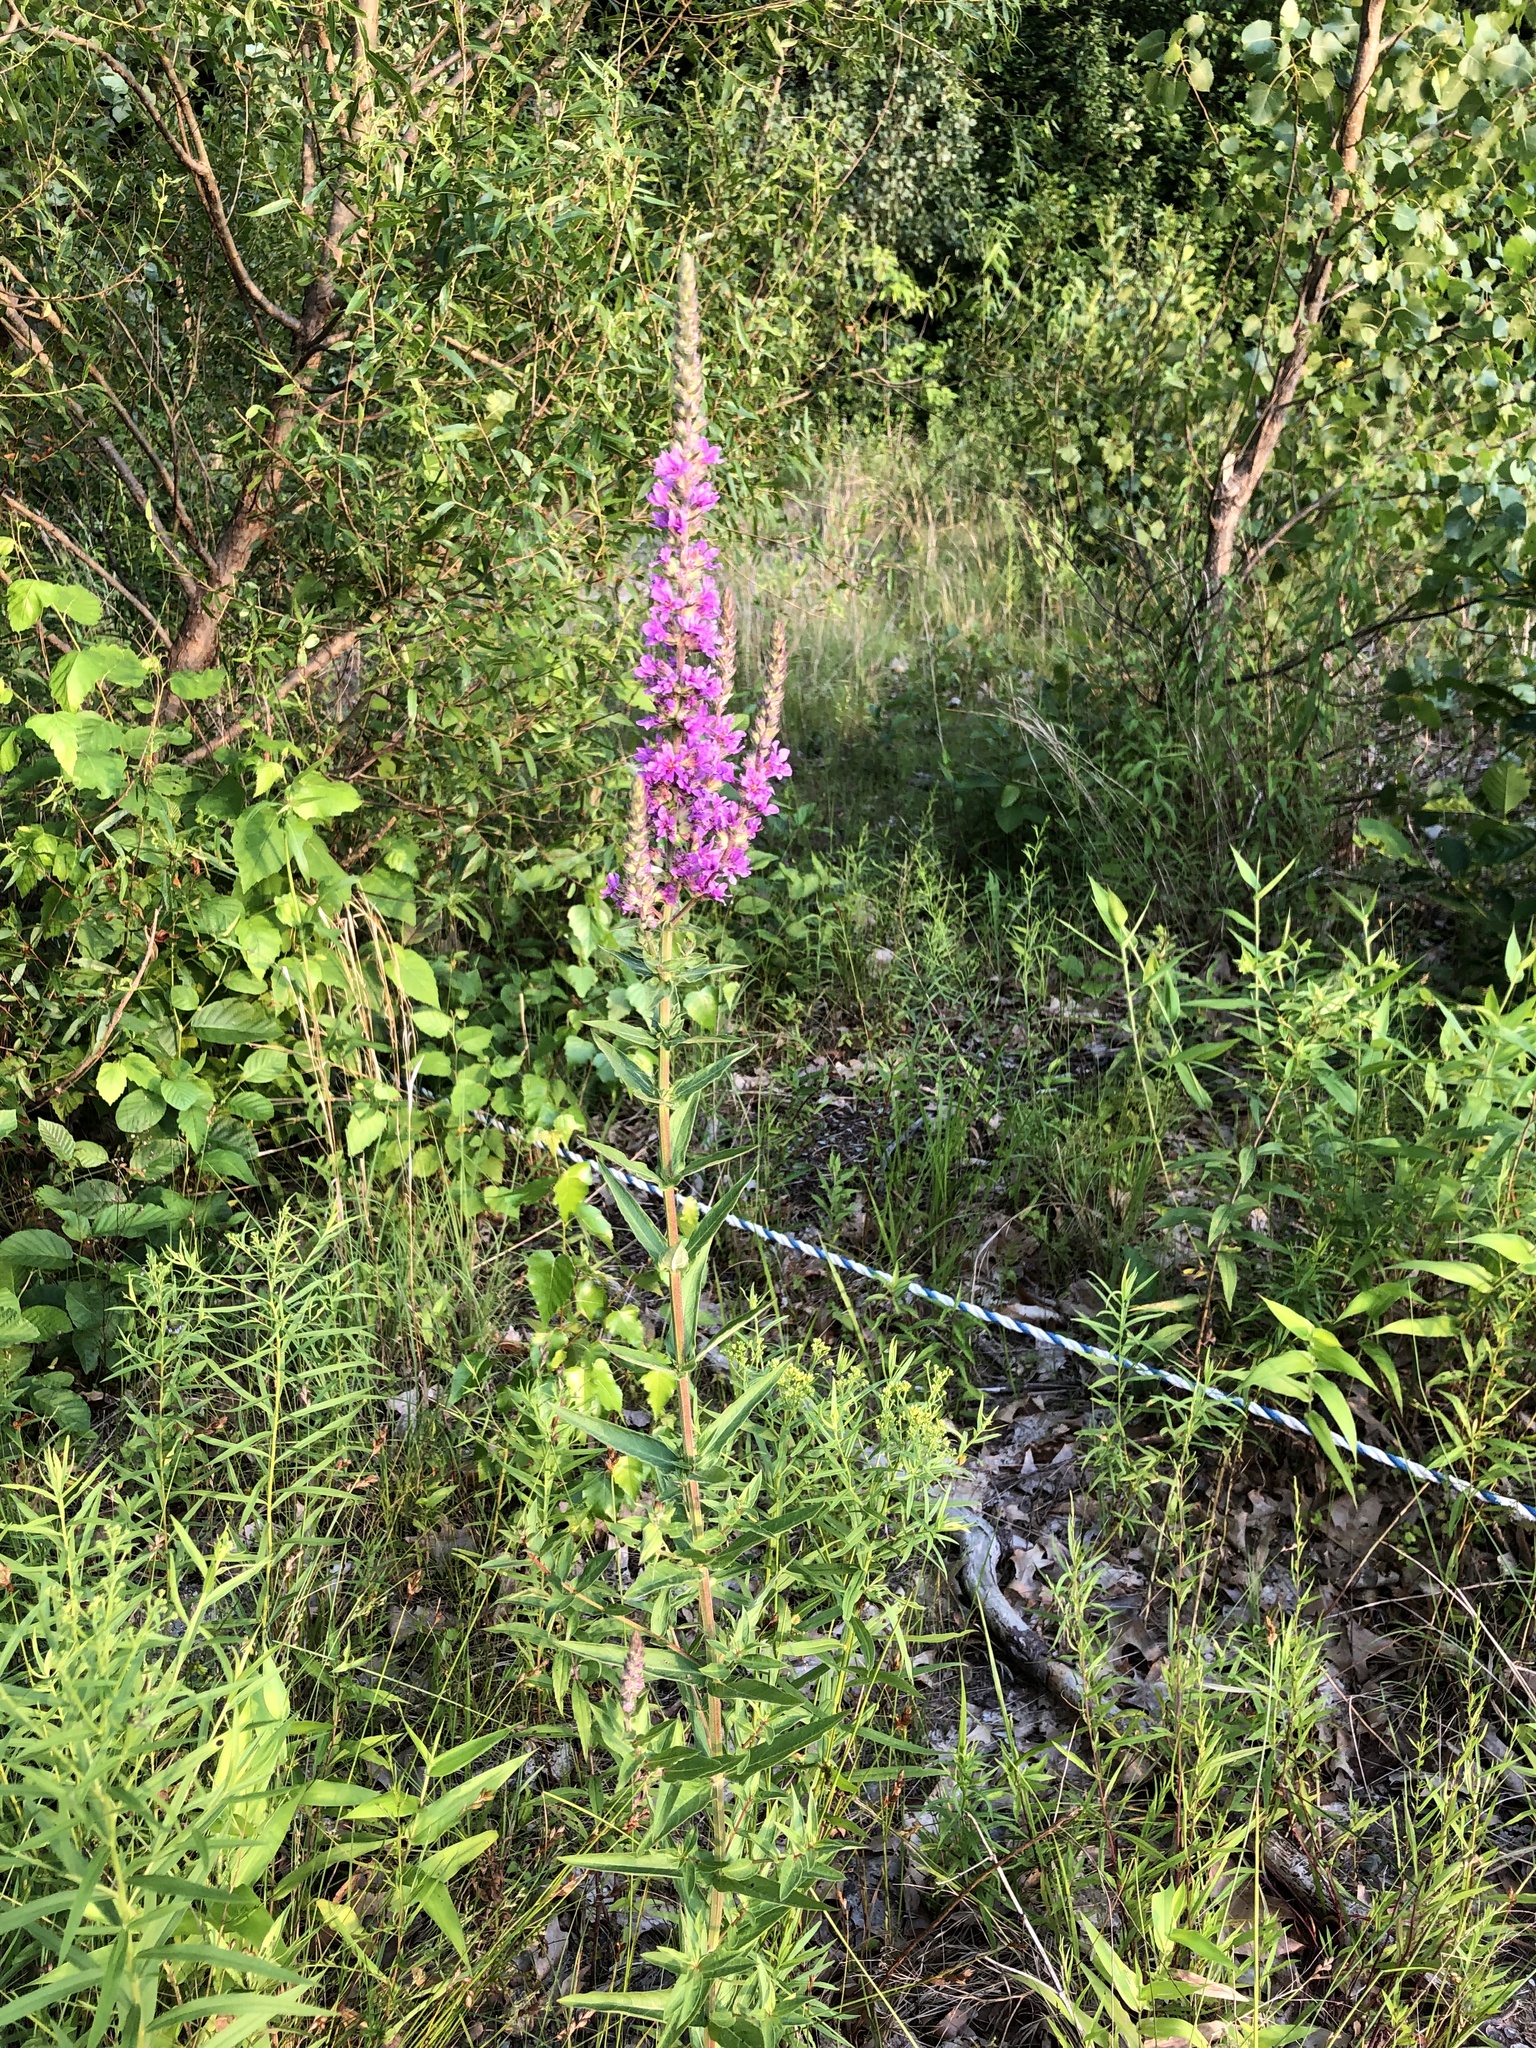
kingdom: Plantae
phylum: Tracheophyta
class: Magnoliopsida
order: Myrtales
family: Lythraceae
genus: Lythrum
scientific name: Lythrum salicaria
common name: Purple loosestrife
